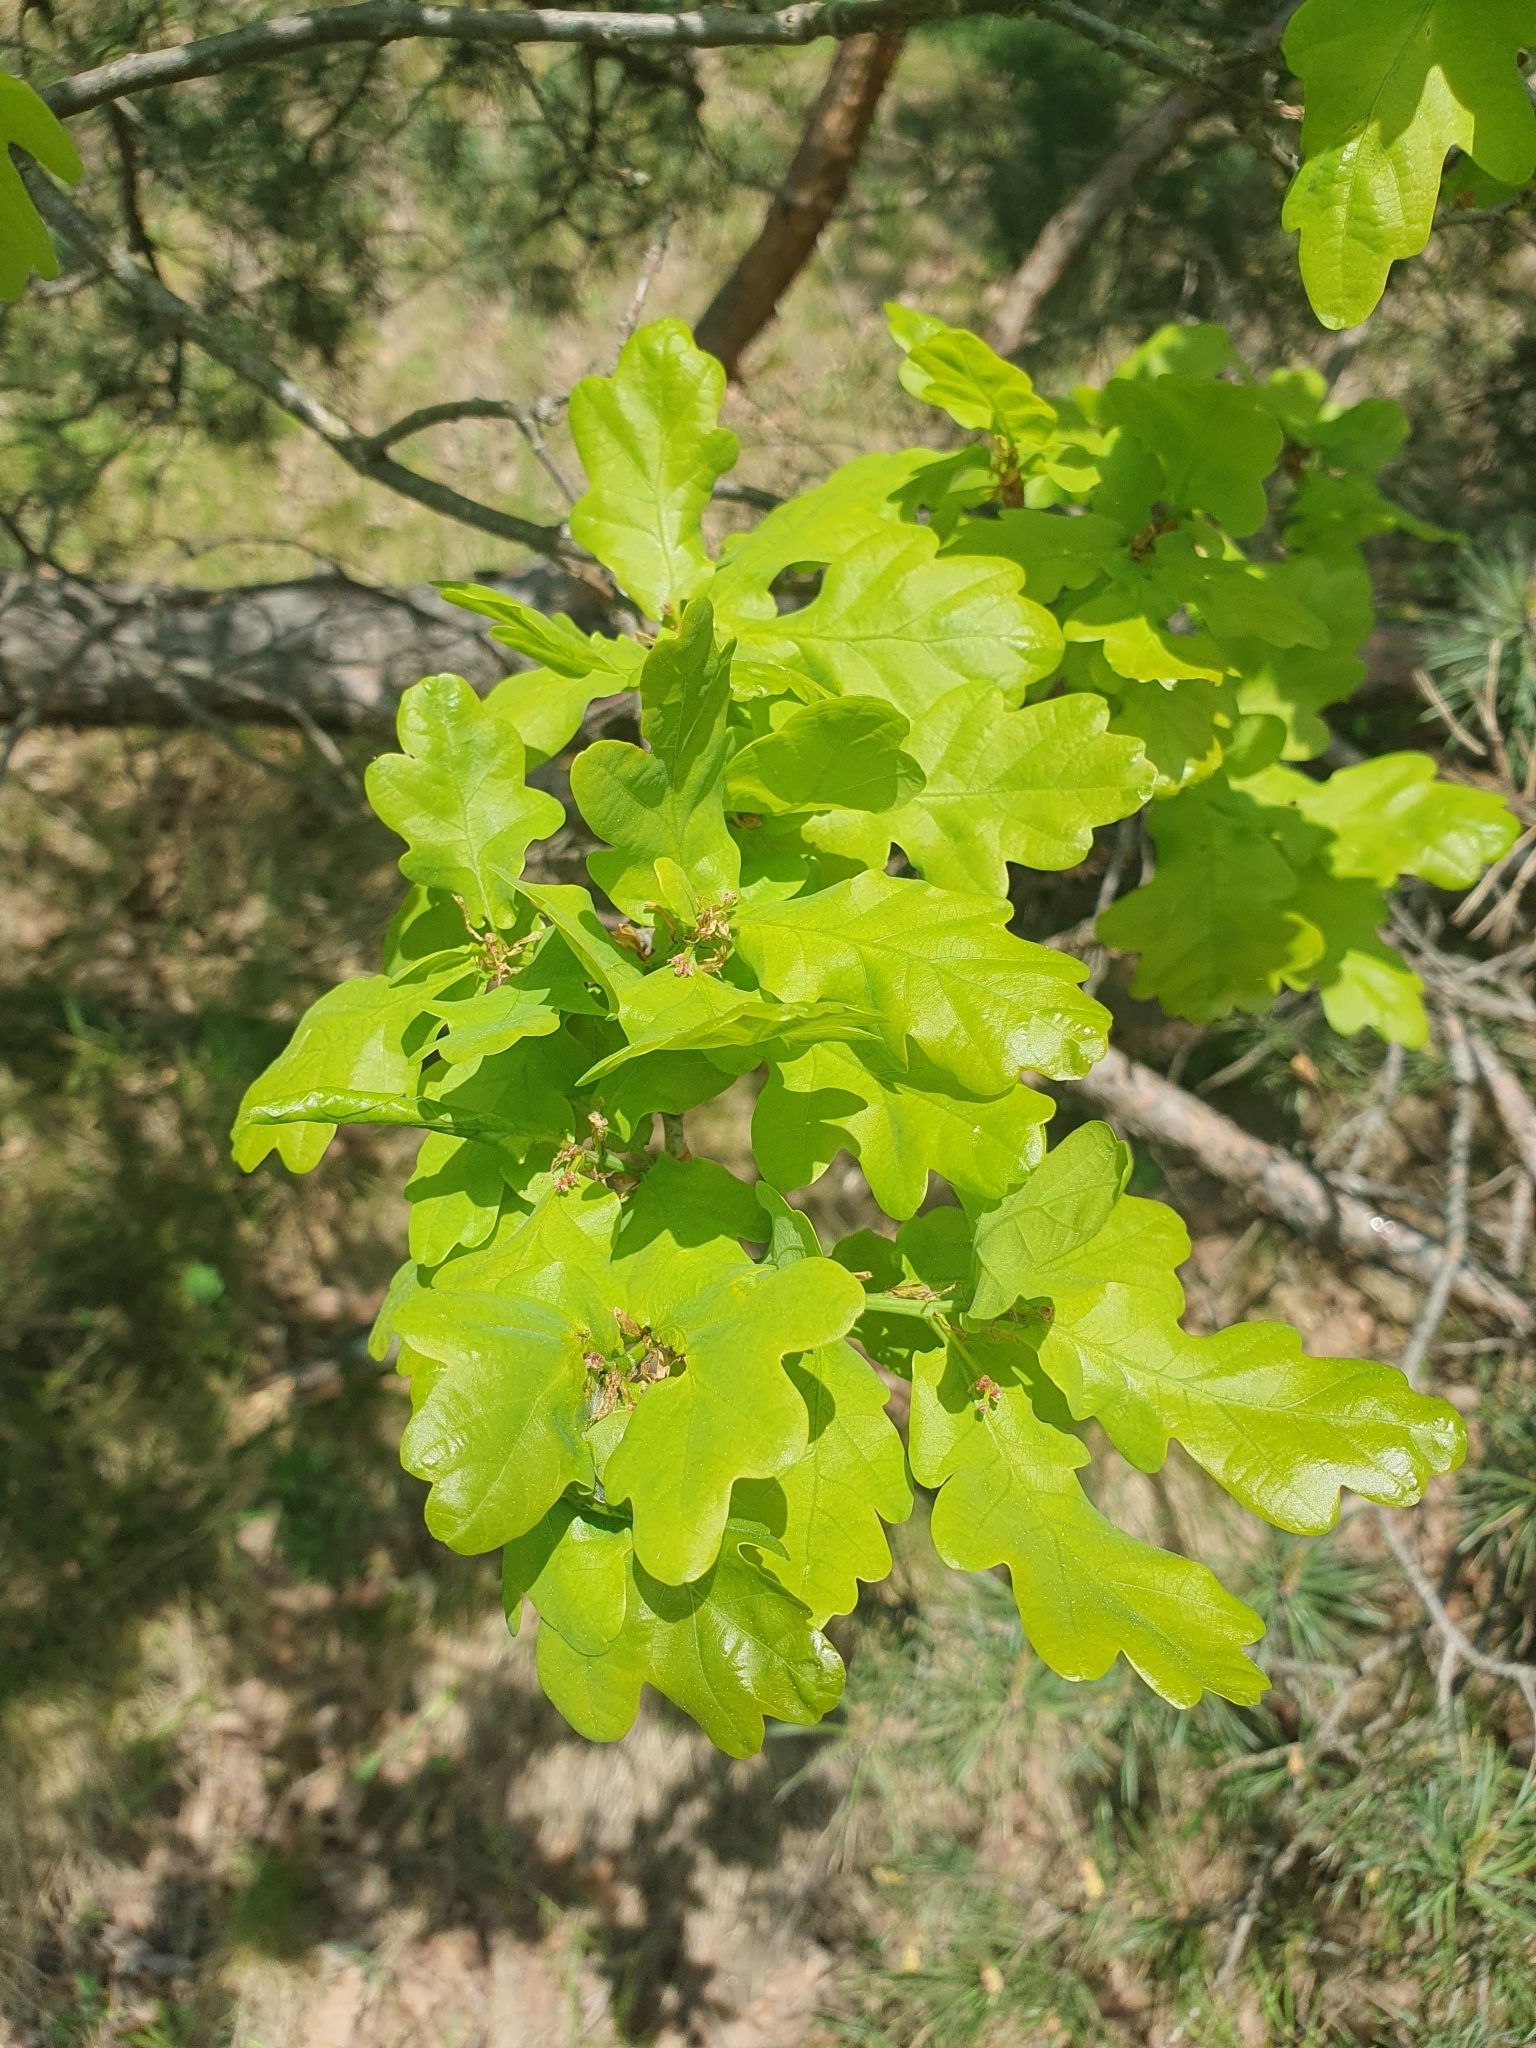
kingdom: Plantae
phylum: Tracheophyta
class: Magnoliopsida
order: Fagales
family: Fagaceae
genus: Quercus
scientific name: Quercus robur
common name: Pedunculate oak
